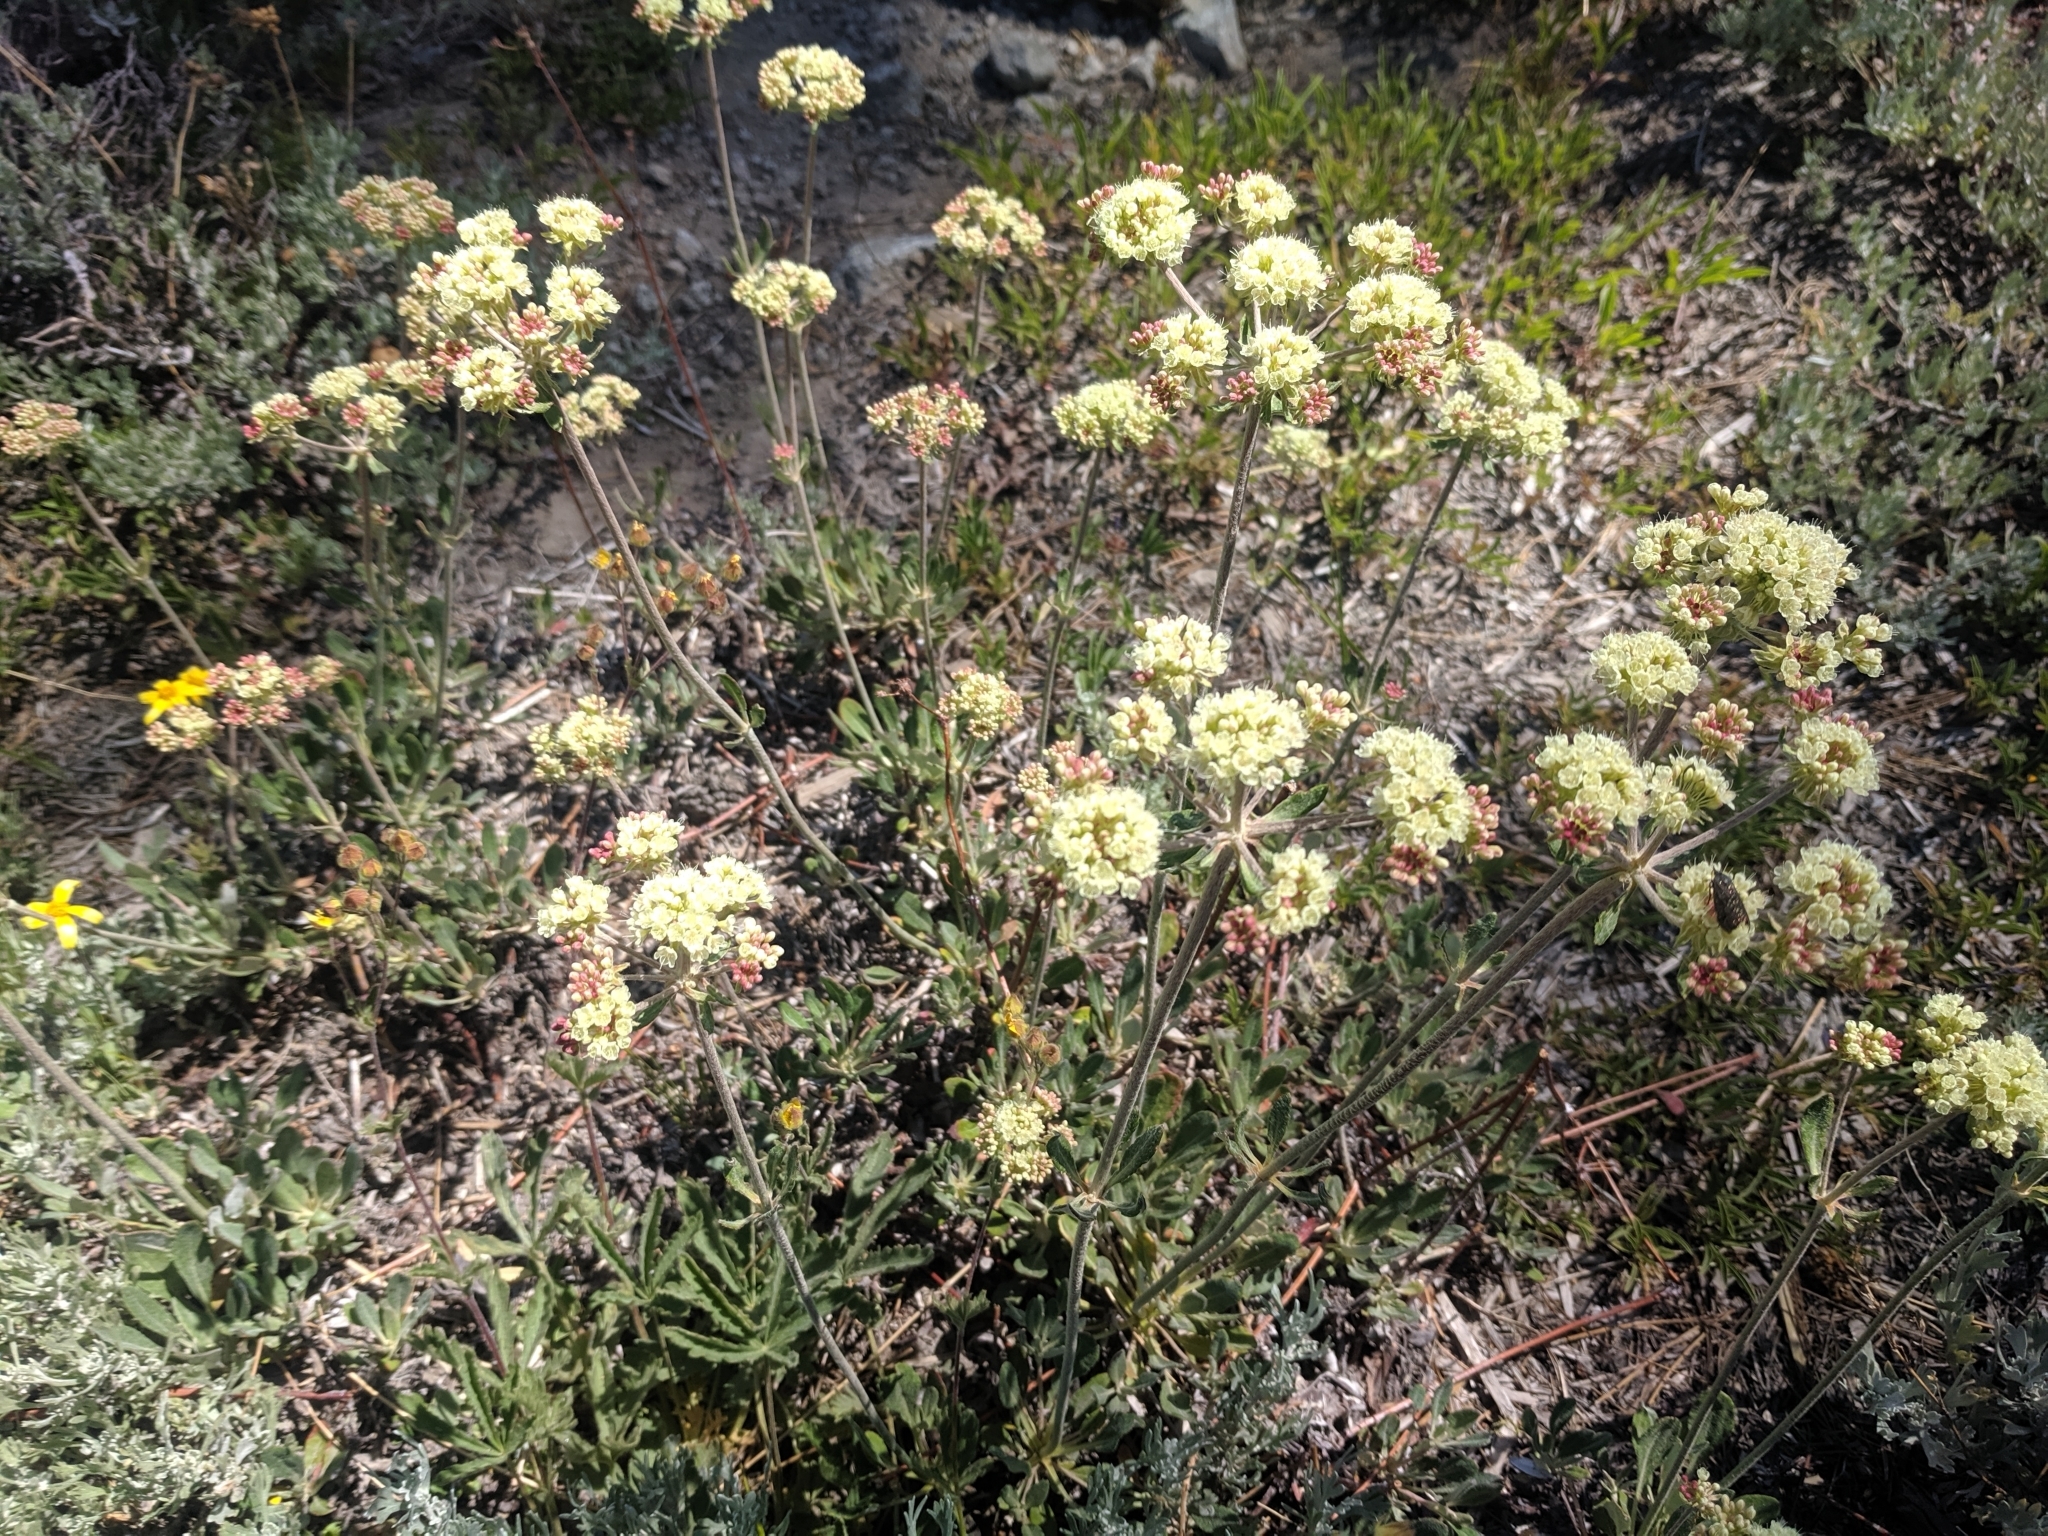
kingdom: Plantae
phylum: Tracheophyta
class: Magnoliopsida
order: Caryophyllales
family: Polygonaceae
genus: Eriogonum
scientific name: Eriogonum heracleoides
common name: Wyeth's buckwheat
